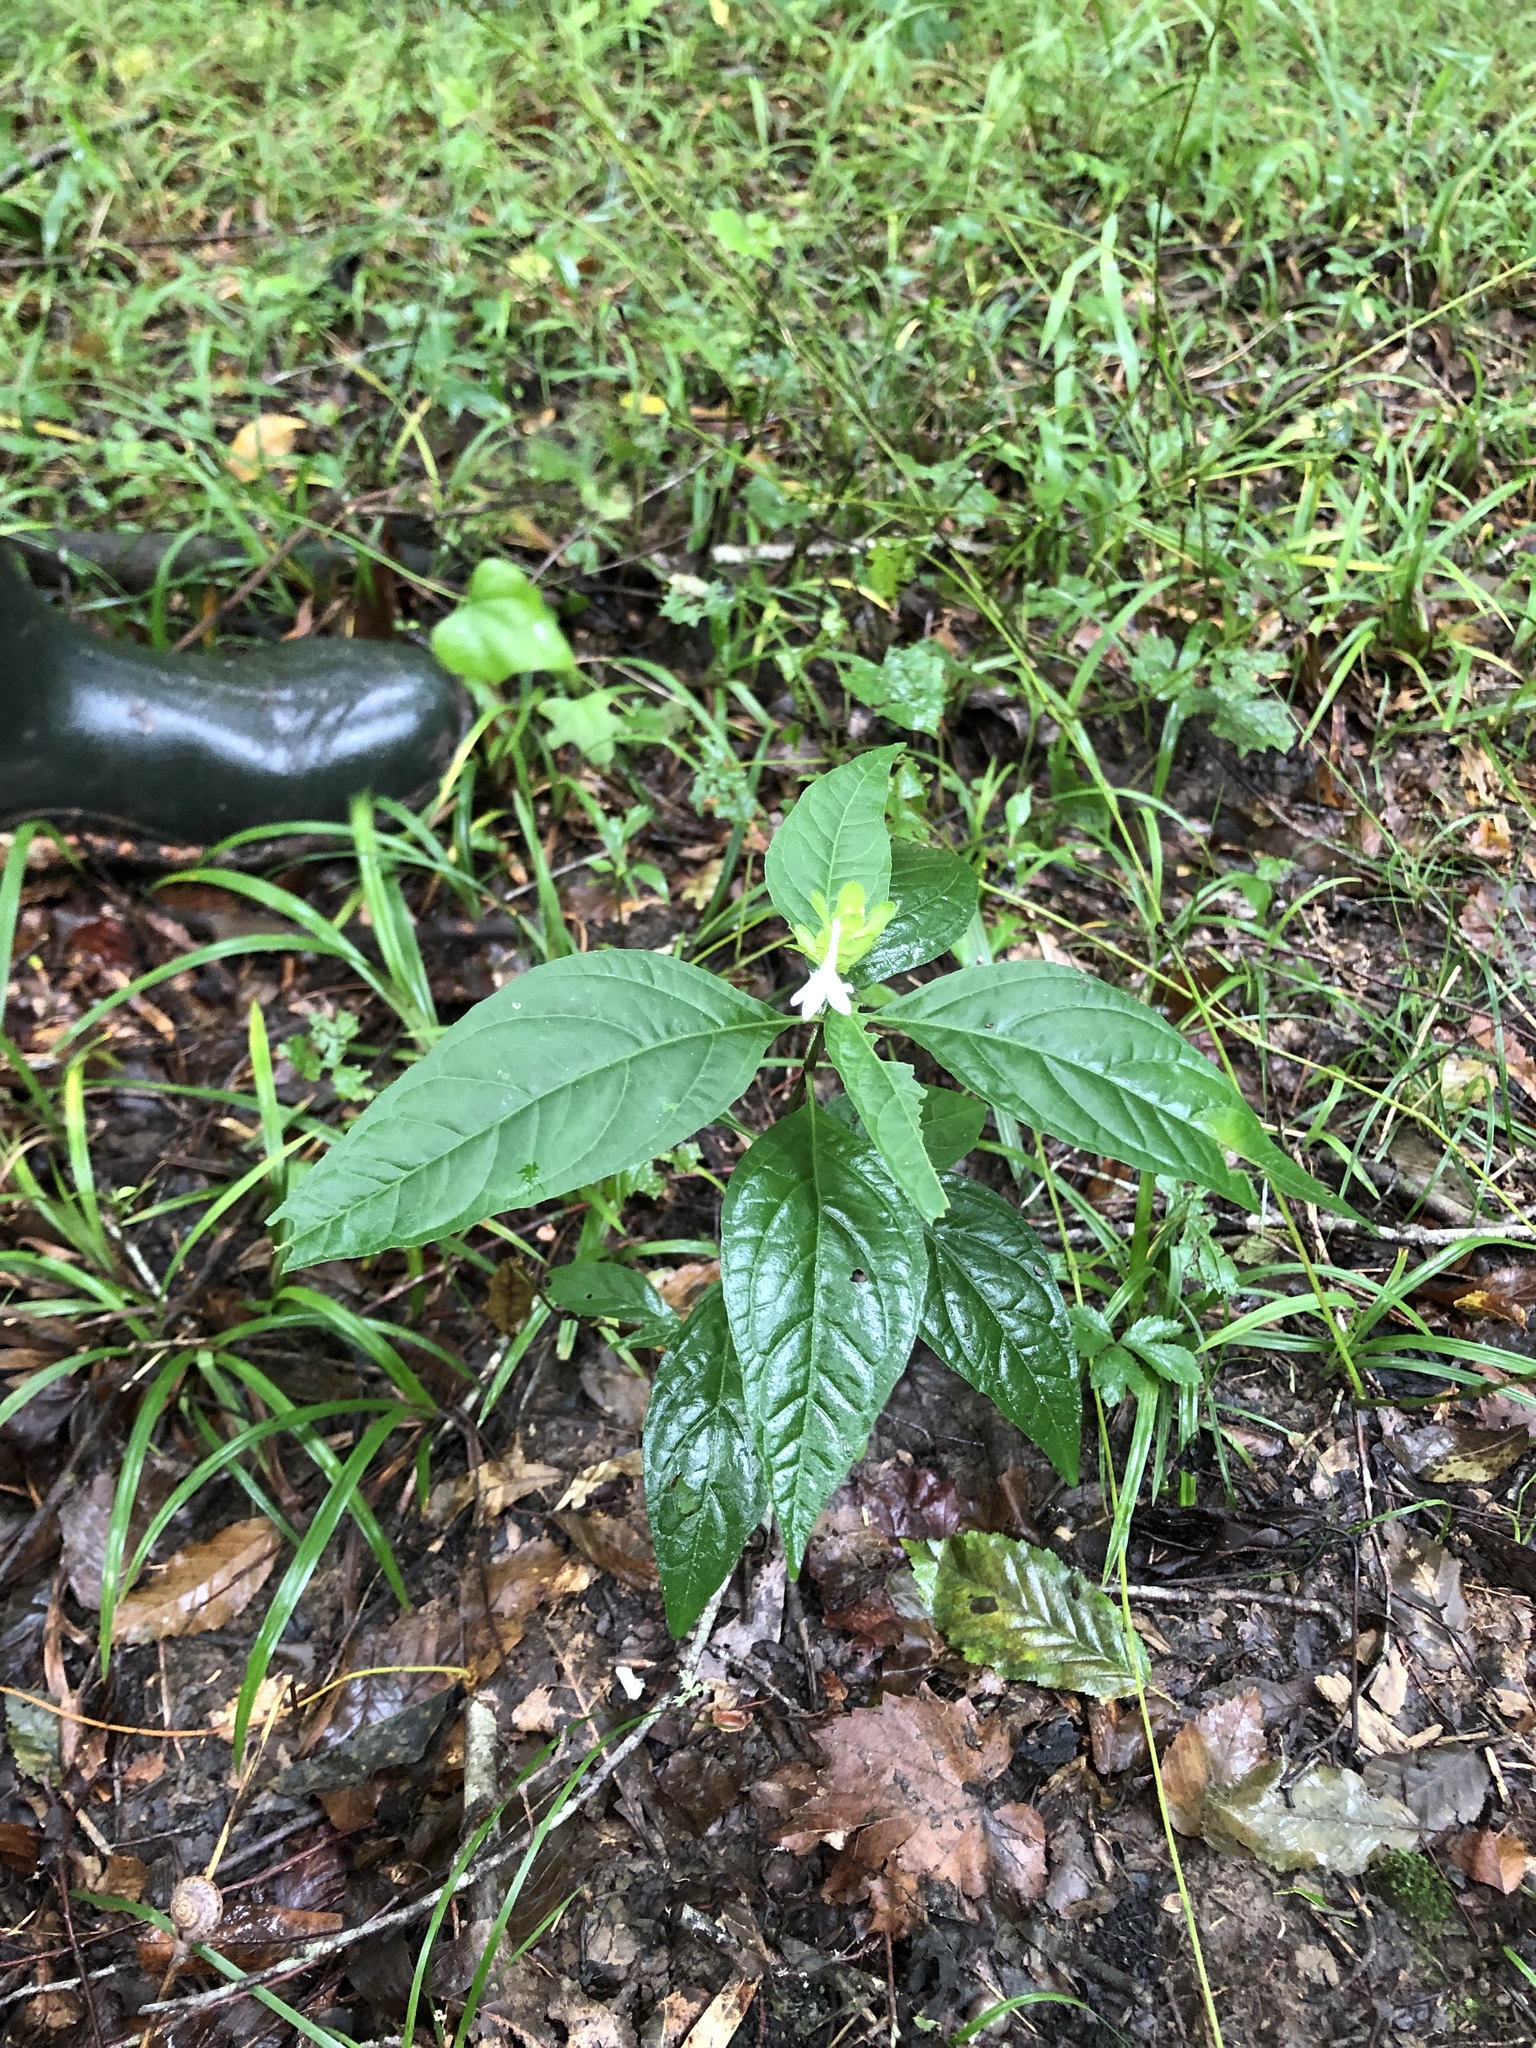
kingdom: Plantae
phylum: Tracheophyta
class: Magnoliopsida
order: Lamiales
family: Acanthaceae
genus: Yeatesia
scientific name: Yeatesia viridiflora
